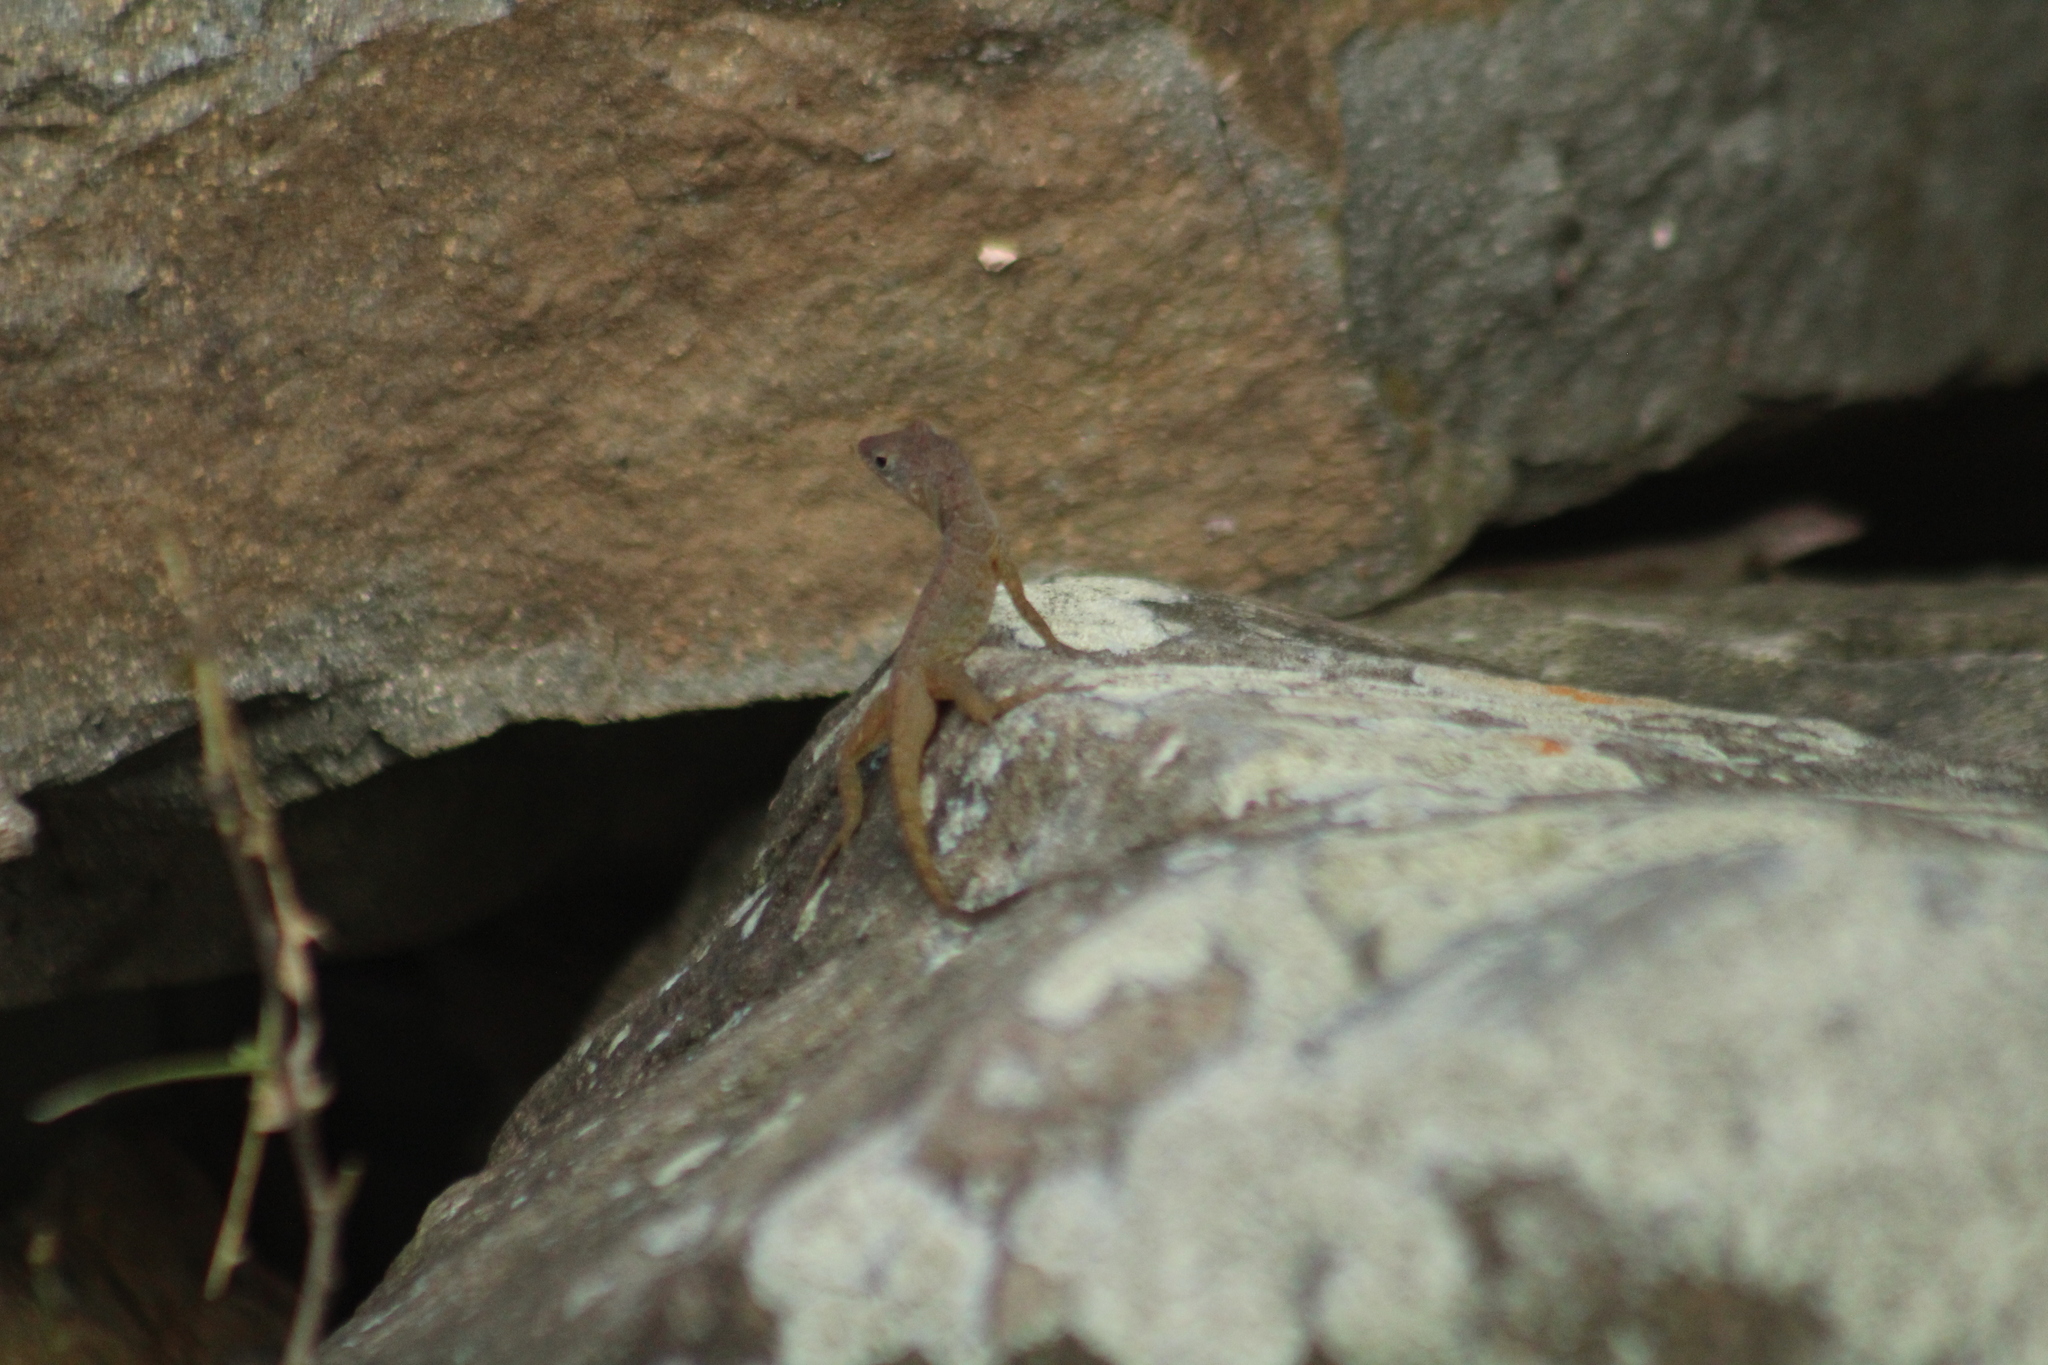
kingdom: Animalia
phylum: Chordata
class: Squamata
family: Dactyloidae
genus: Anolis
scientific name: Anolis pogus
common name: Anguilla bank bush anole
